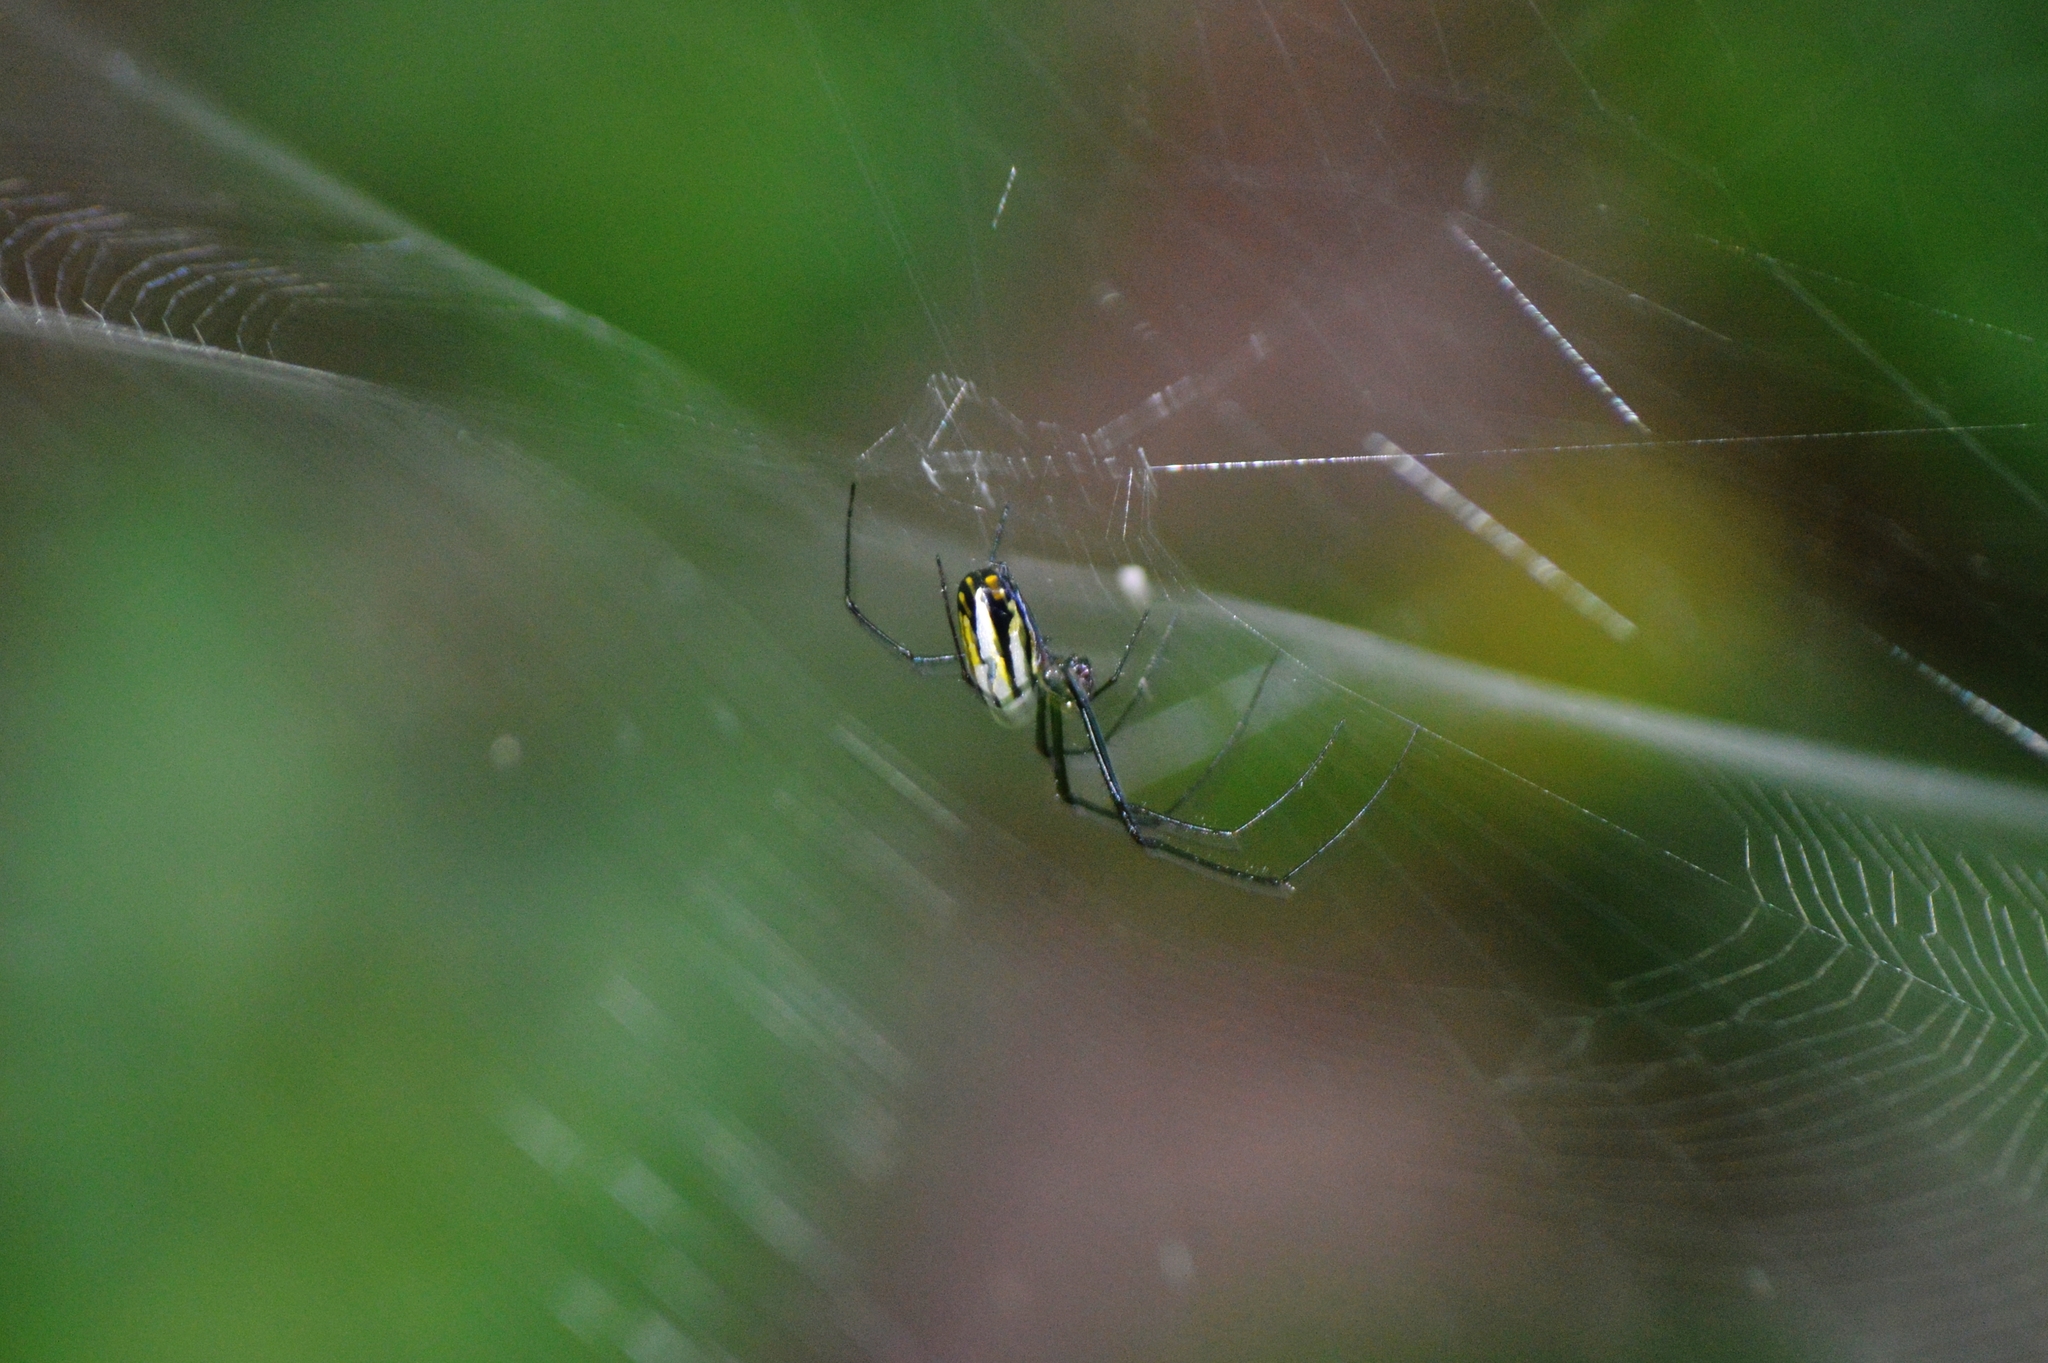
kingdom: Animalia
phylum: Arthropoda
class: Arachnida
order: Araneae
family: Tetragnathidae
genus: Leucauge
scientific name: Leucauge argyra
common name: Longjawed orb weavers
